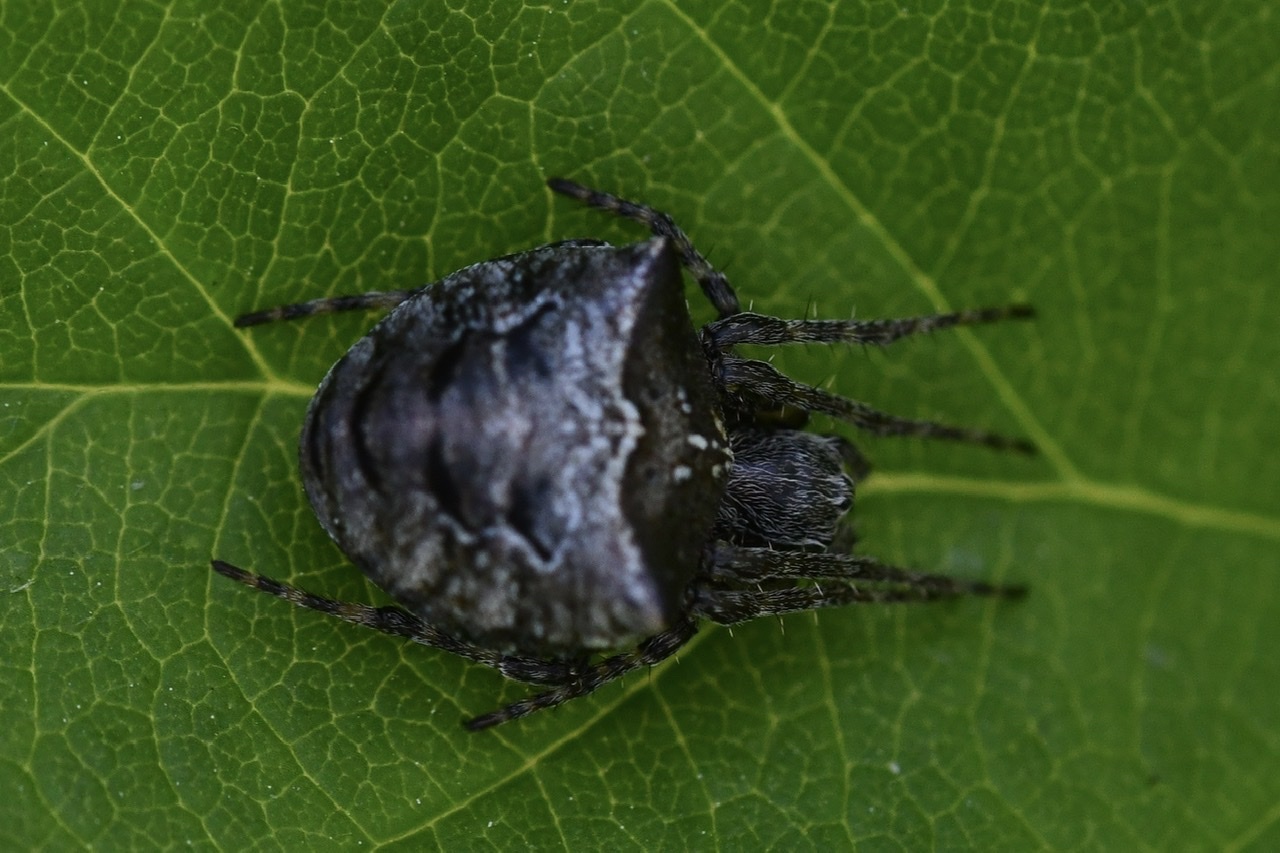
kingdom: Animalia
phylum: Arthropoda
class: Arachnida
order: Araneae
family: Araneidae
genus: Gibbaranea
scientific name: Gibbaranea bituberculata
